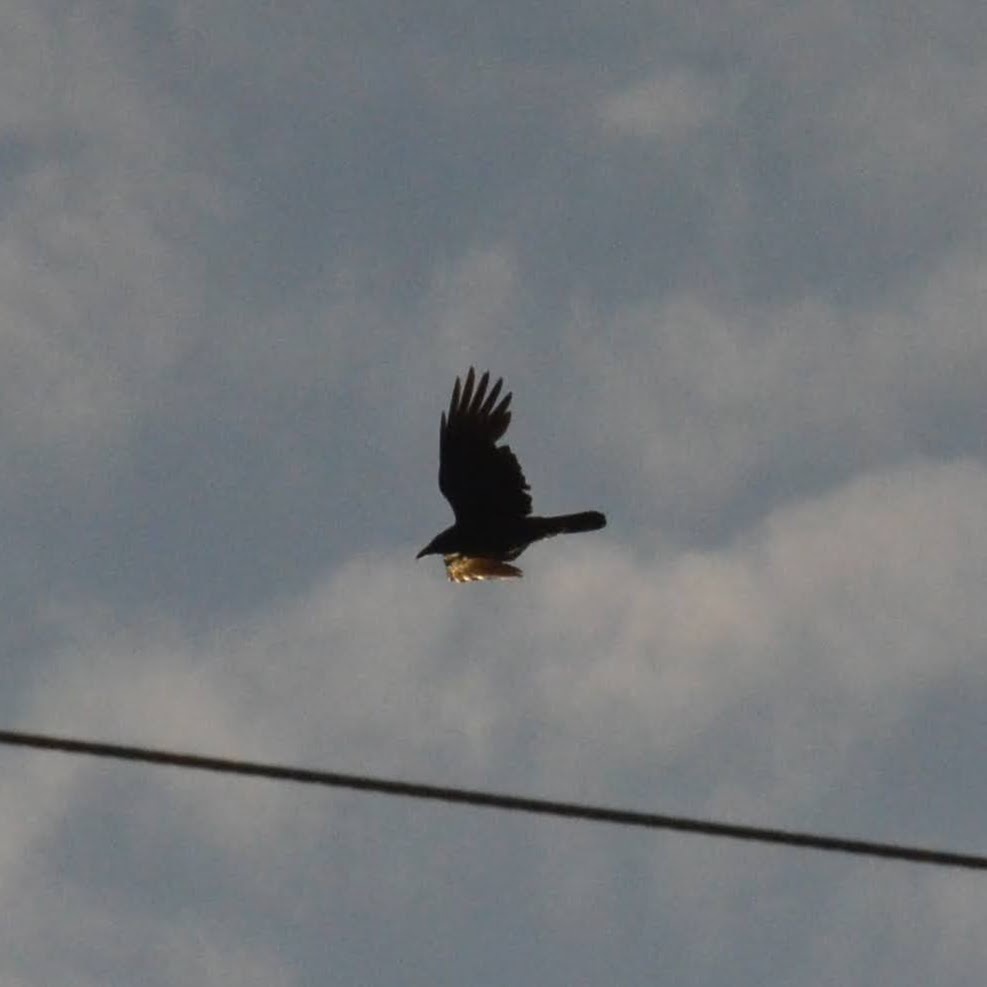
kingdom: Animalia
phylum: Chordata
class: Aves
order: Passeriformes
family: Corvidae
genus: Corvus
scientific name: Corvus corone
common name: Carrion crow
